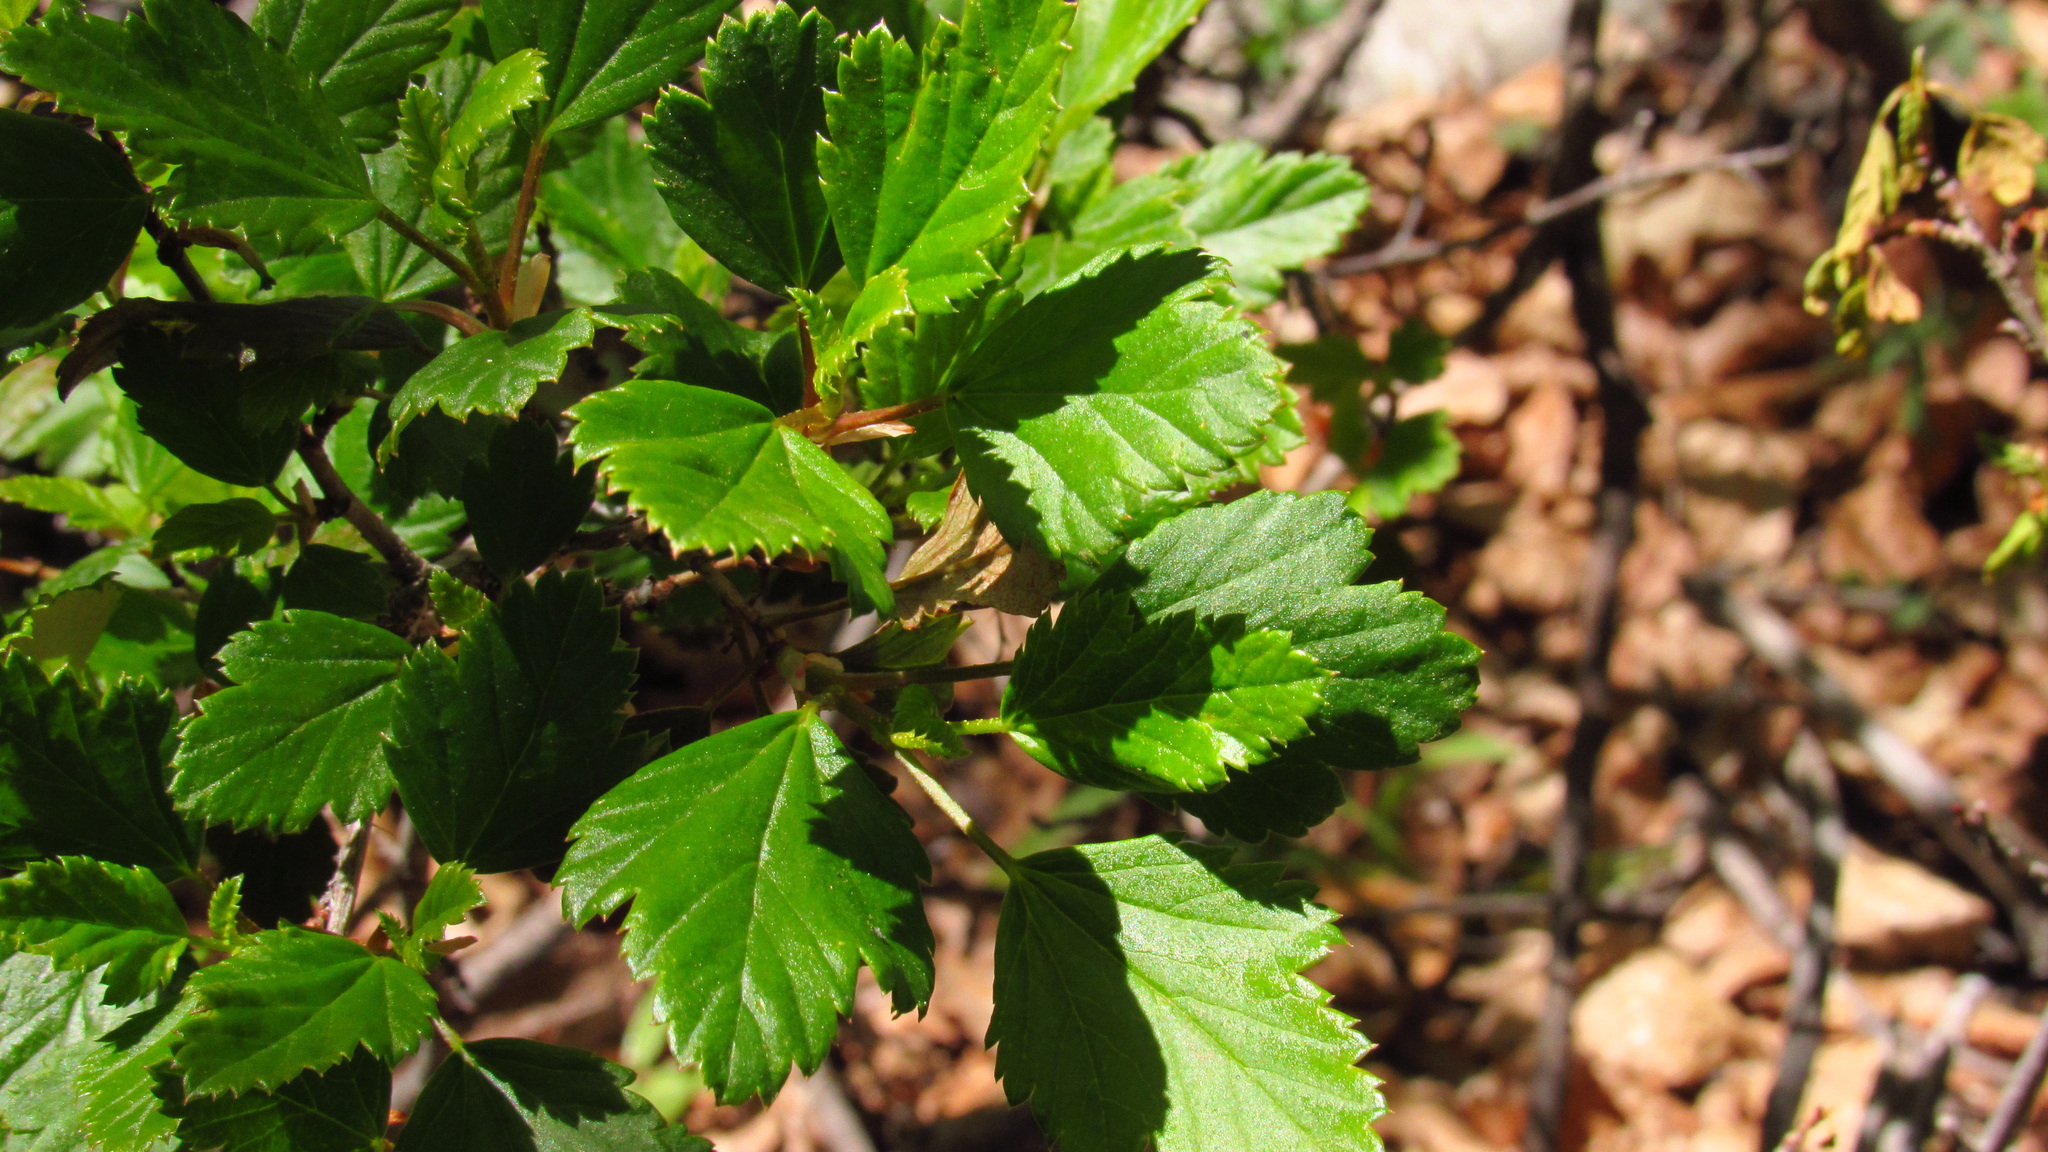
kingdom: Plantae
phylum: Tracheophyta
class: Magnoliopsida
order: Saxifragales
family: Grossulariaceae
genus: Ribes
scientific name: Ribes punctatum
